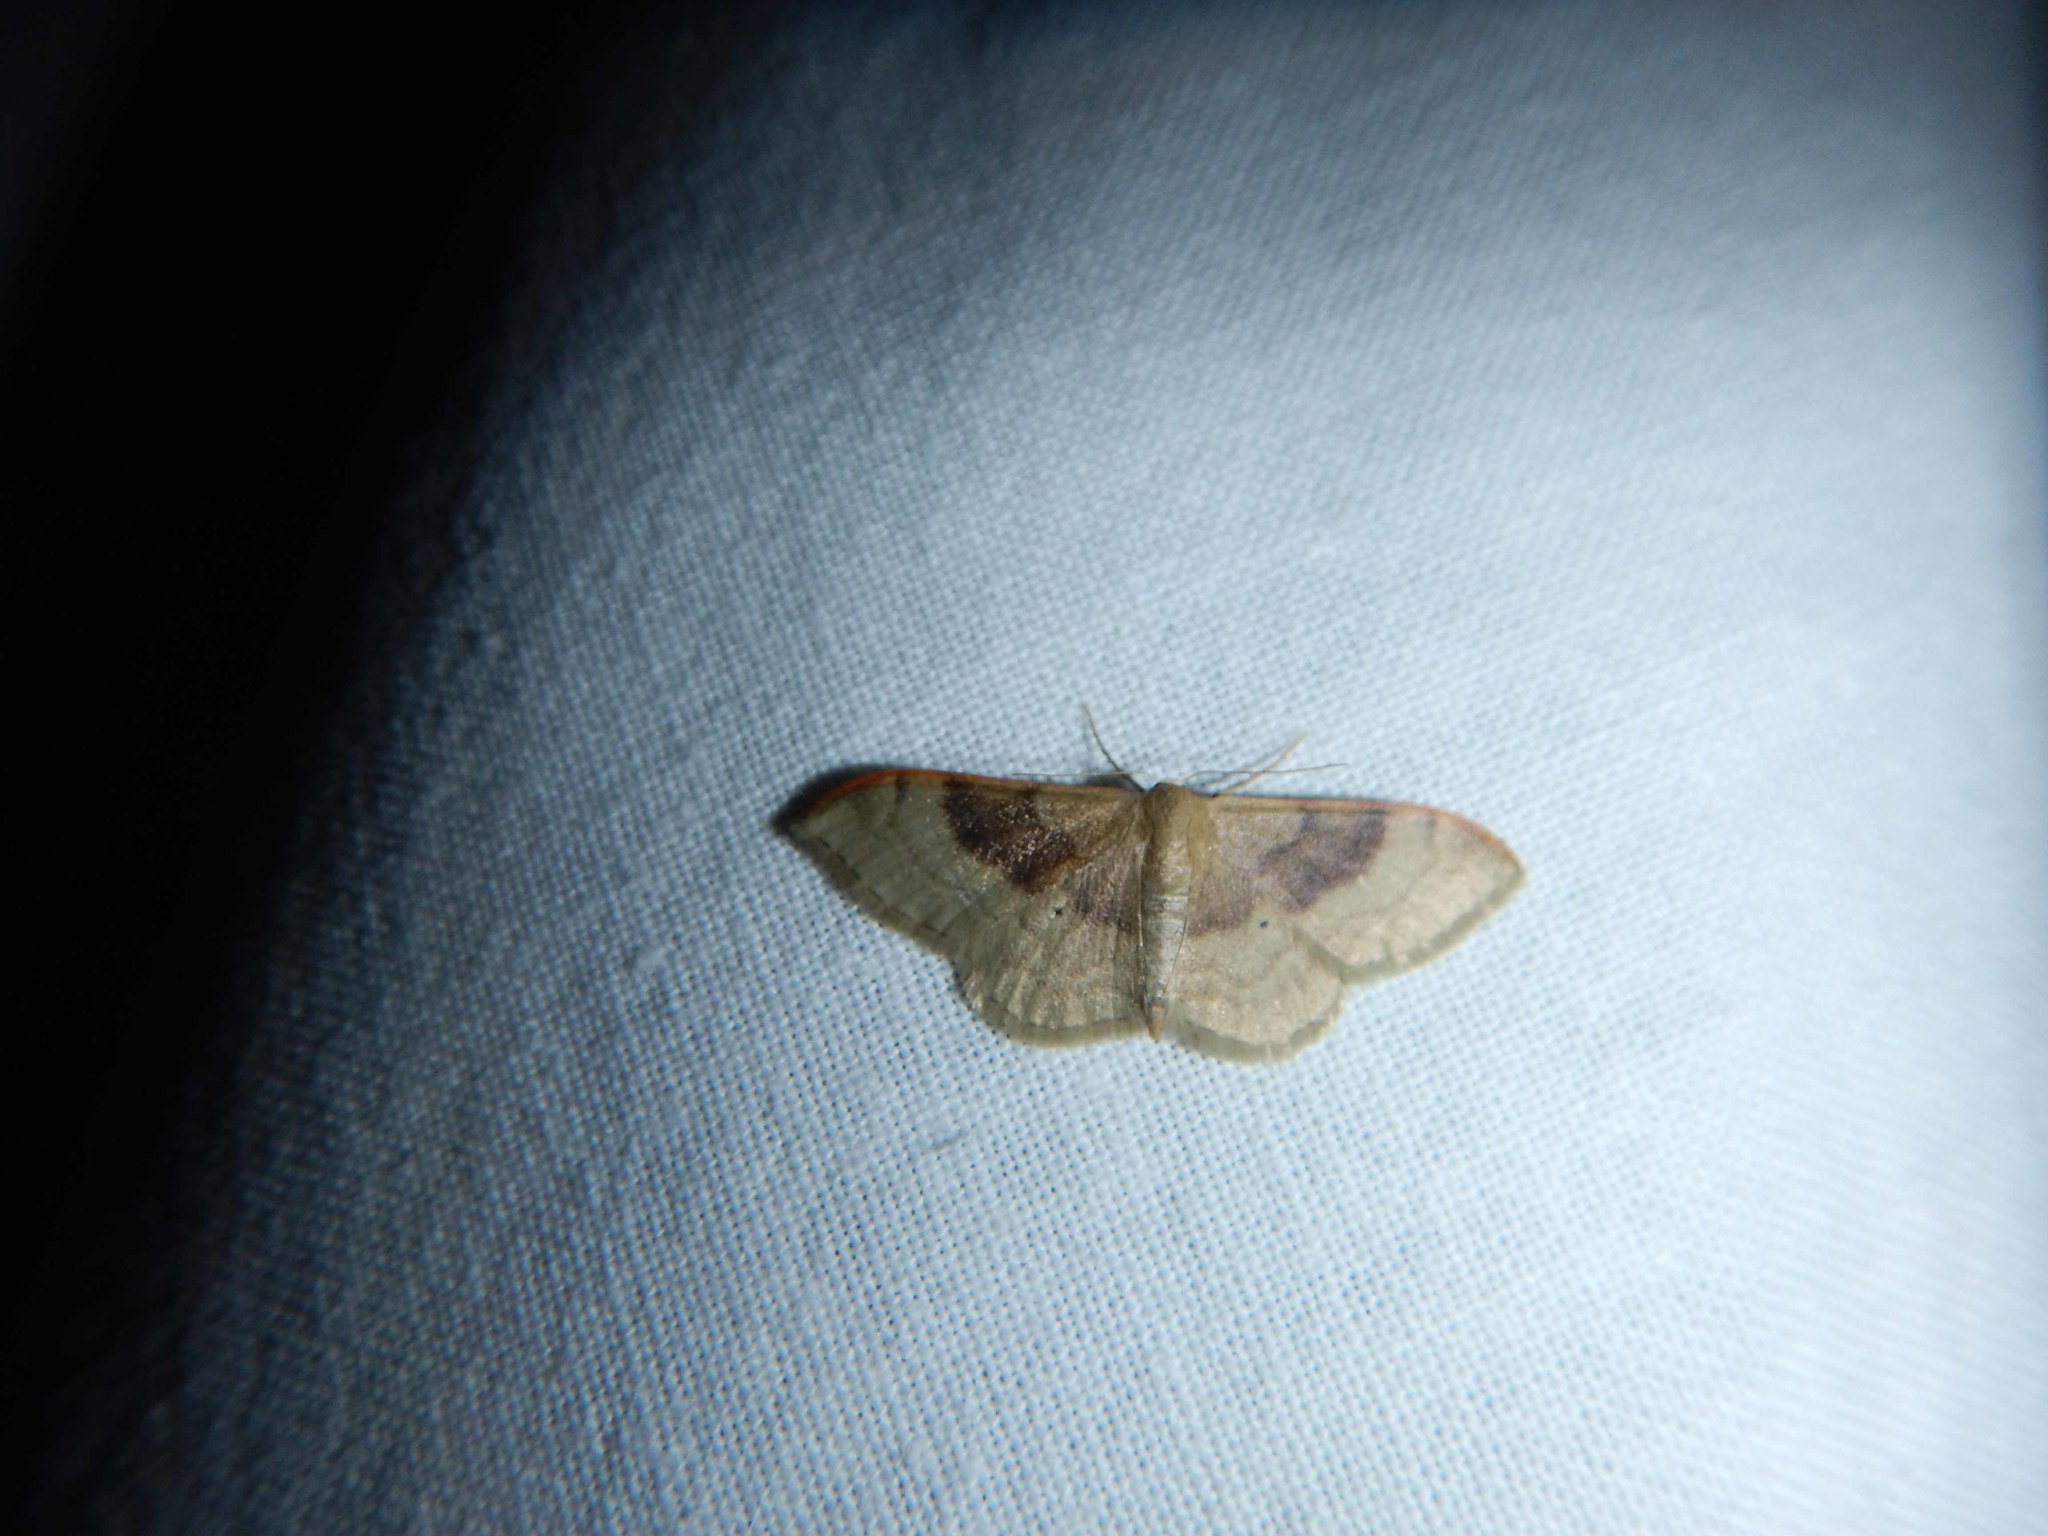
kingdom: Animalia
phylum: Arthropoda
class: Insecta
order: Lepidoptera
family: Geometridae
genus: Idaea
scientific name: Idaea degeneraria
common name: Portland ribbon wave
